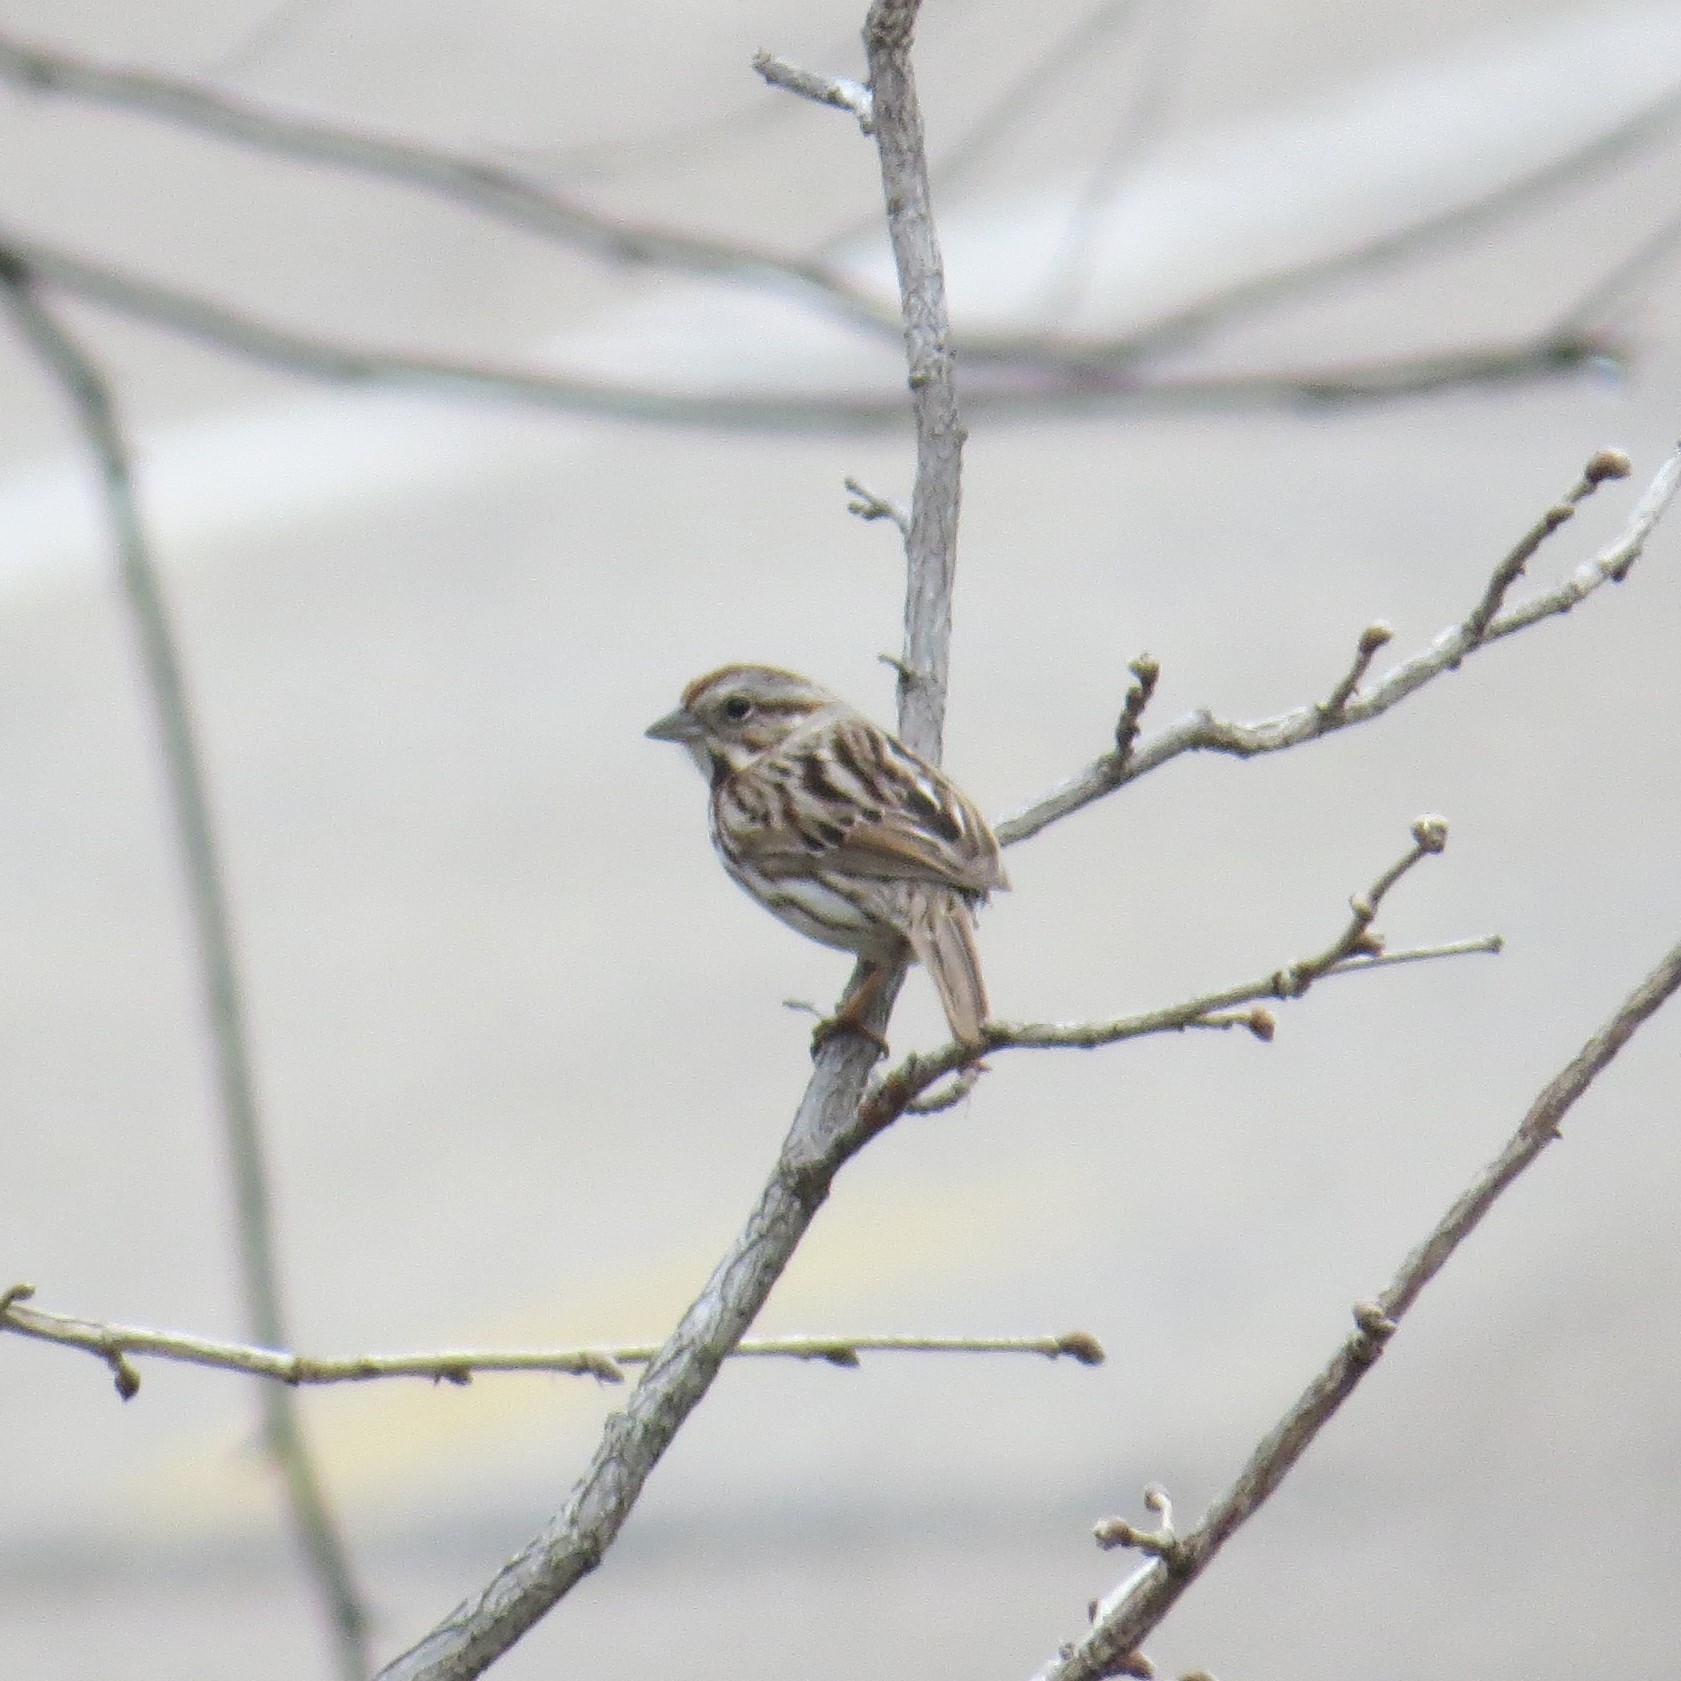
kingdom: Animalia
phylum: Chordata
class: Aves
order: Passeriformes
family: Passerellidae
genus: Melospiza
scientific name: Melospiza melodia
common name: Song sparrow
